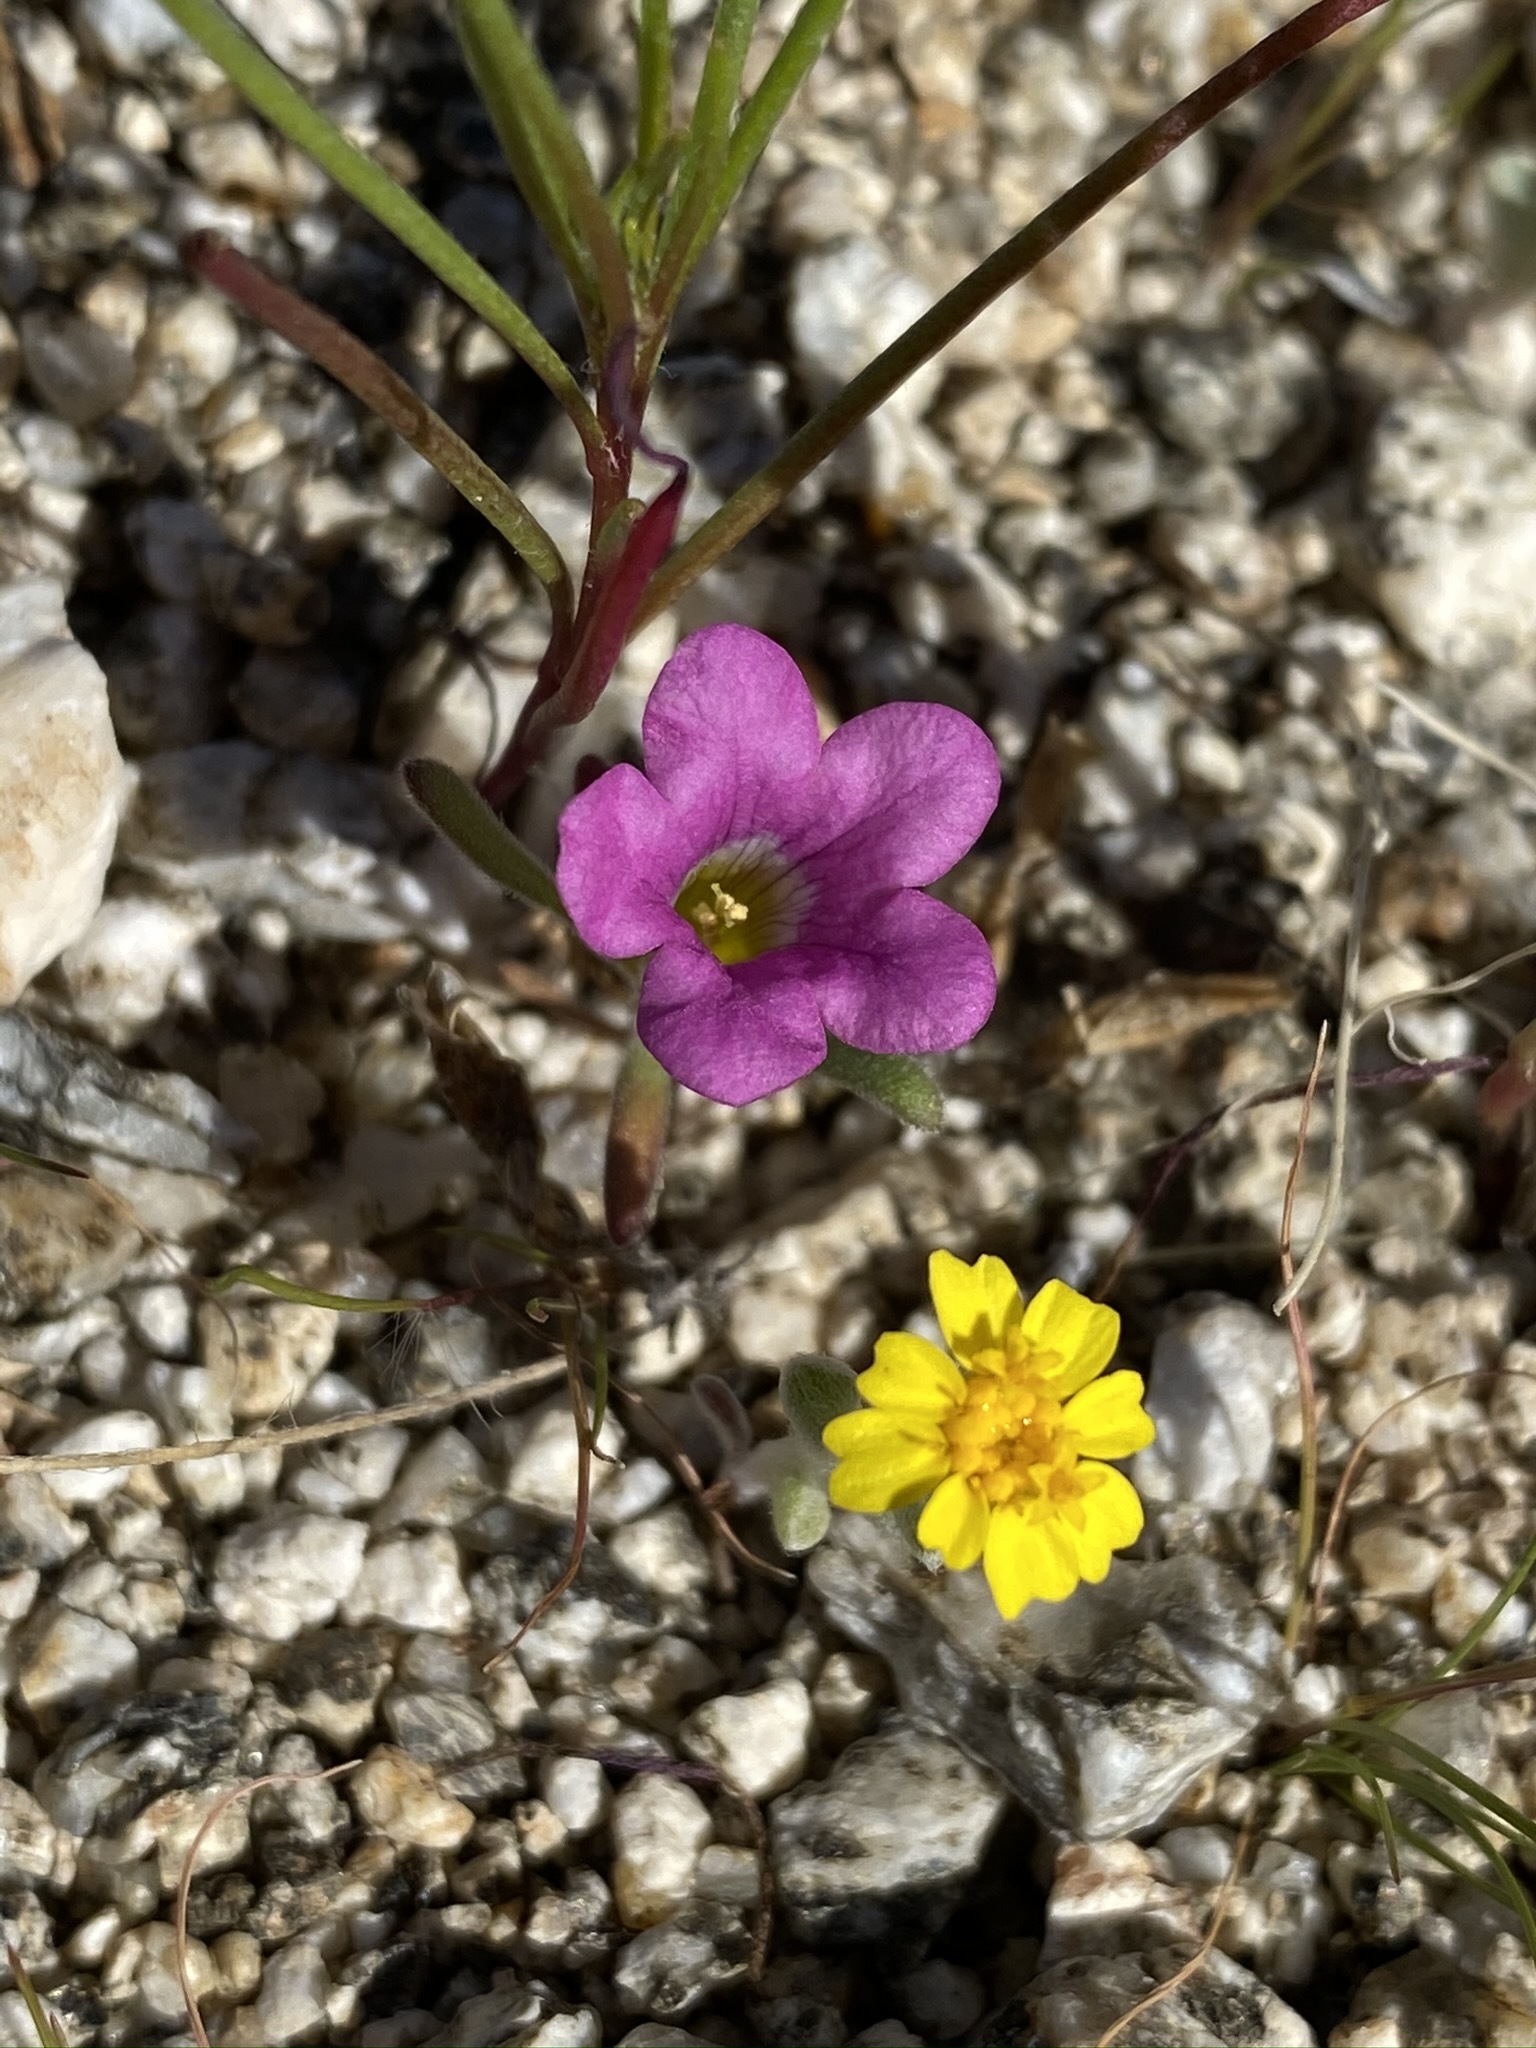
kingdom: Plantae
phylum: Tracheophyta
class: Magnoliopsida
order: Boraginales
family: Namaceae
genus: Nama
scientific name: Nama demissa
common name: Leafy nama
